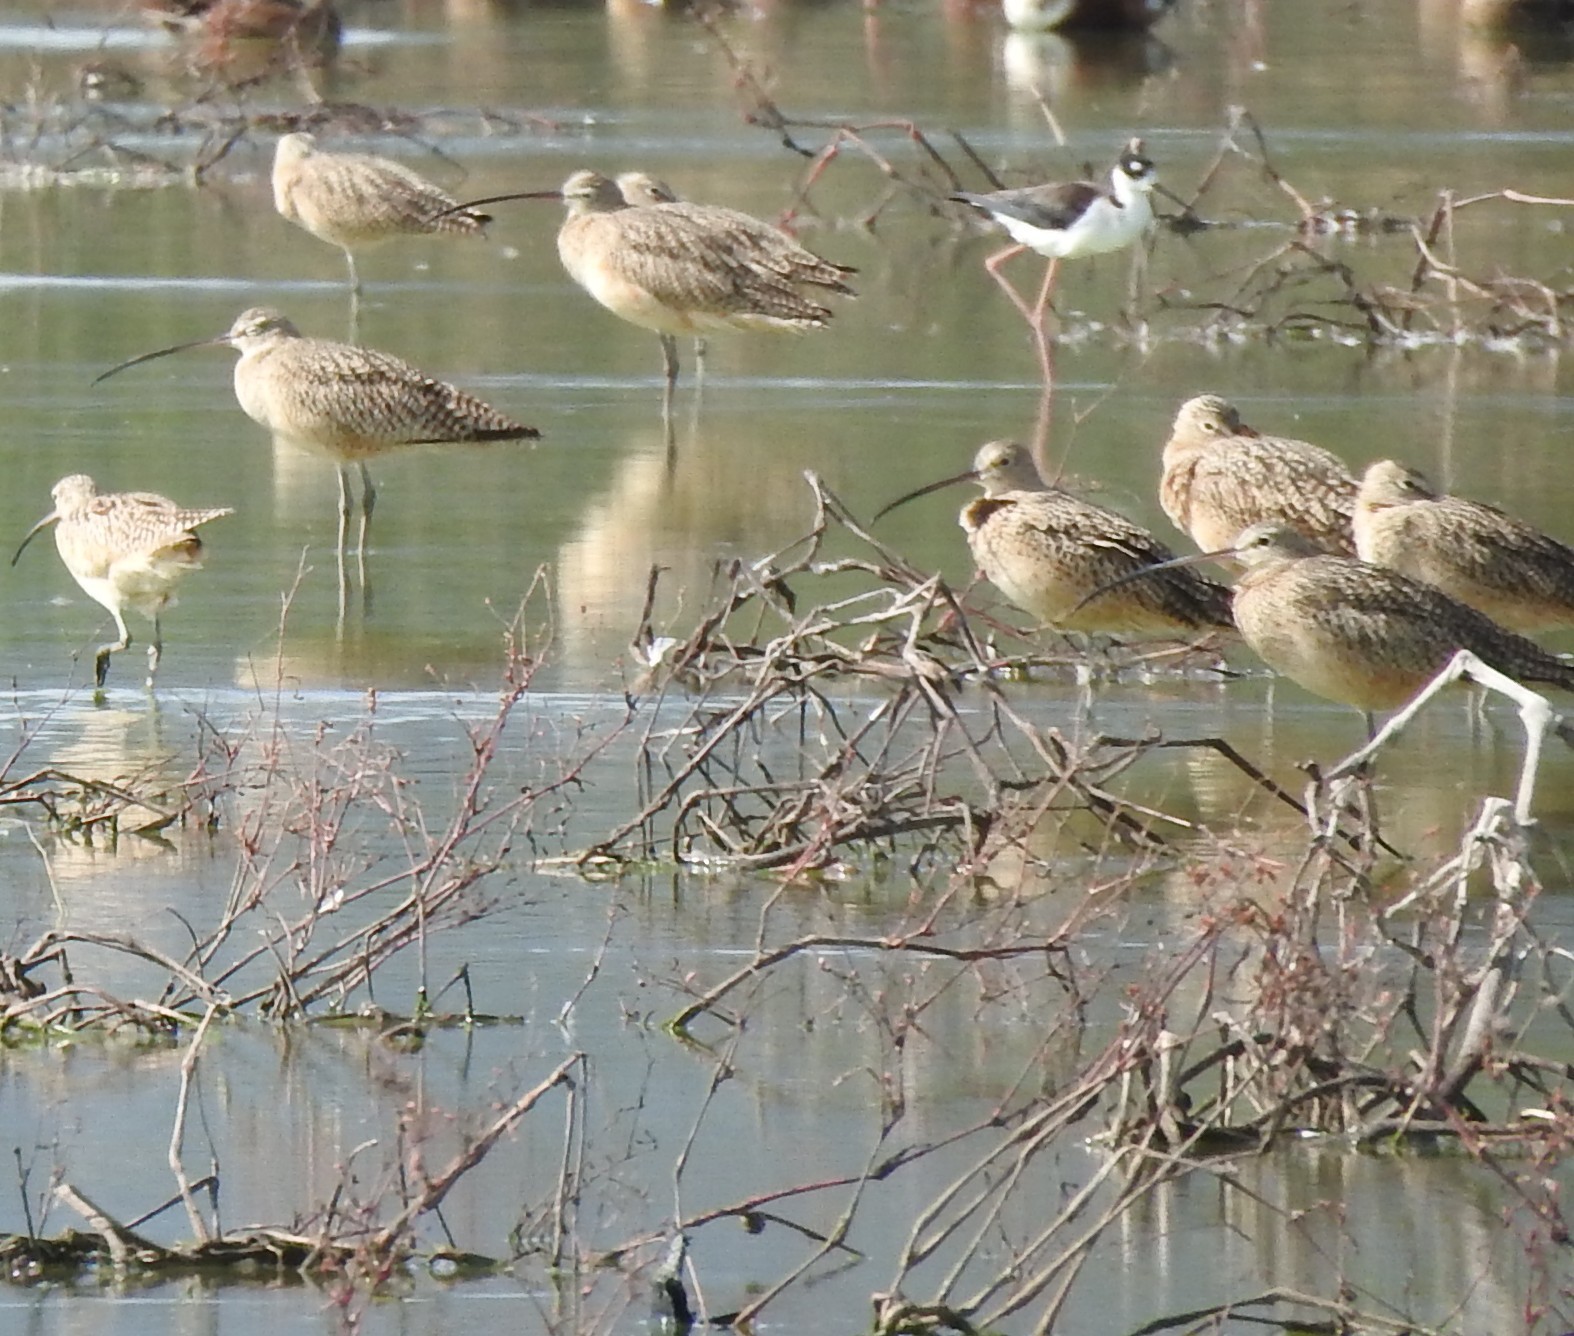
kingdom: Animalia
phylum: Chordata
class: Aves
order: Charadriiformes
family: Scolopacidae
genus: Numenius
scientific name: Numenius americanus
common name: Long-billed curlew
